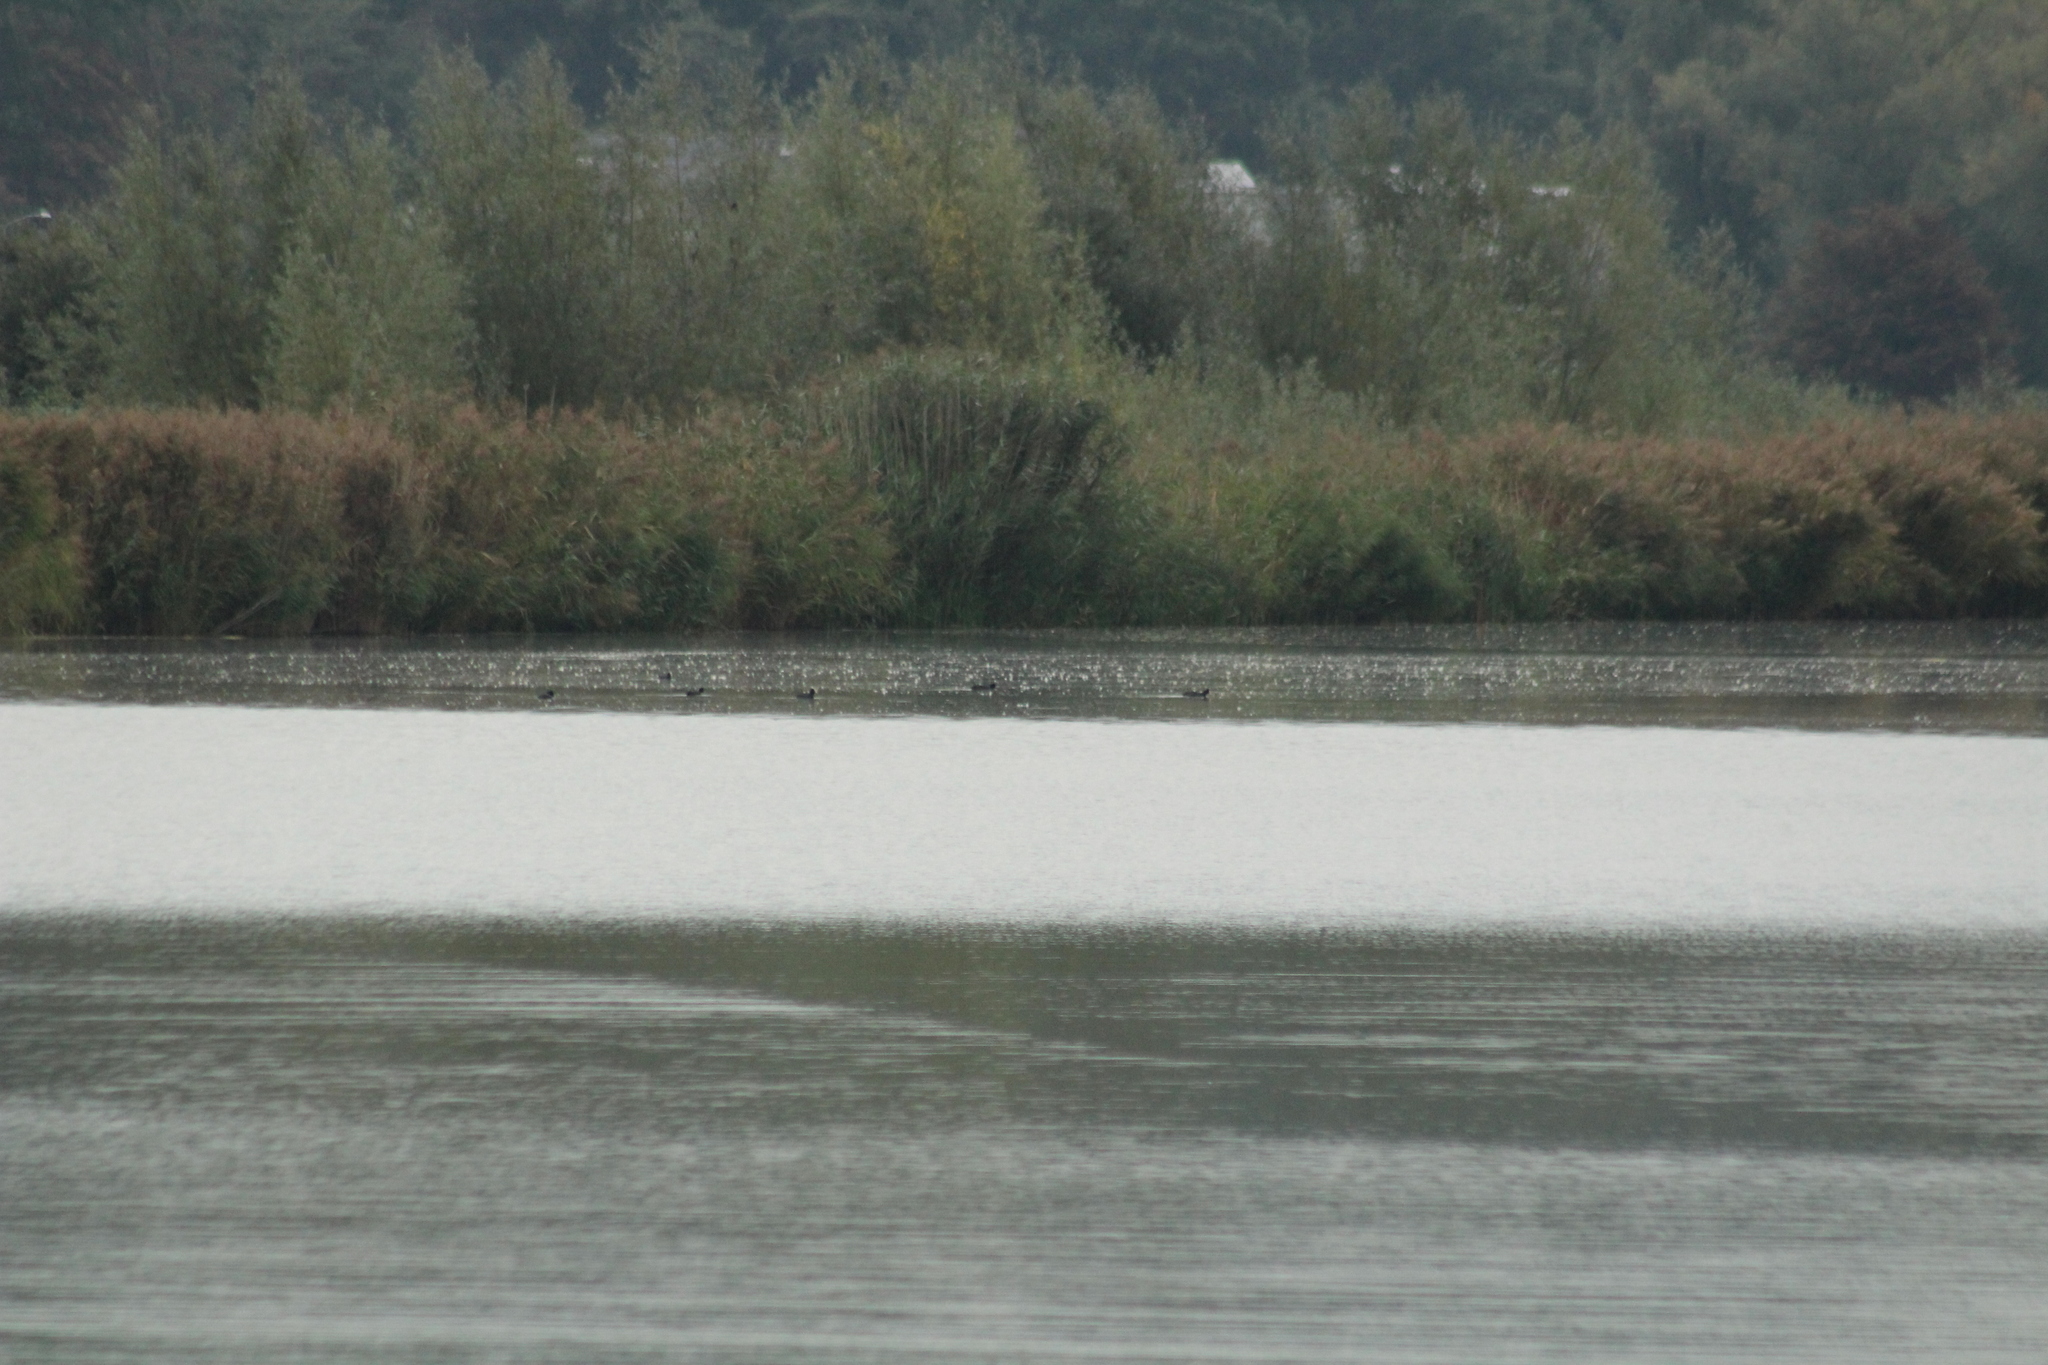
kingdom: Animalia
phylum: Chordata
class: Aves
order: Gruiformes
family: Rallidae
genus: Fulica
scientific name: Fulica atra
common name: Eurasian coot
